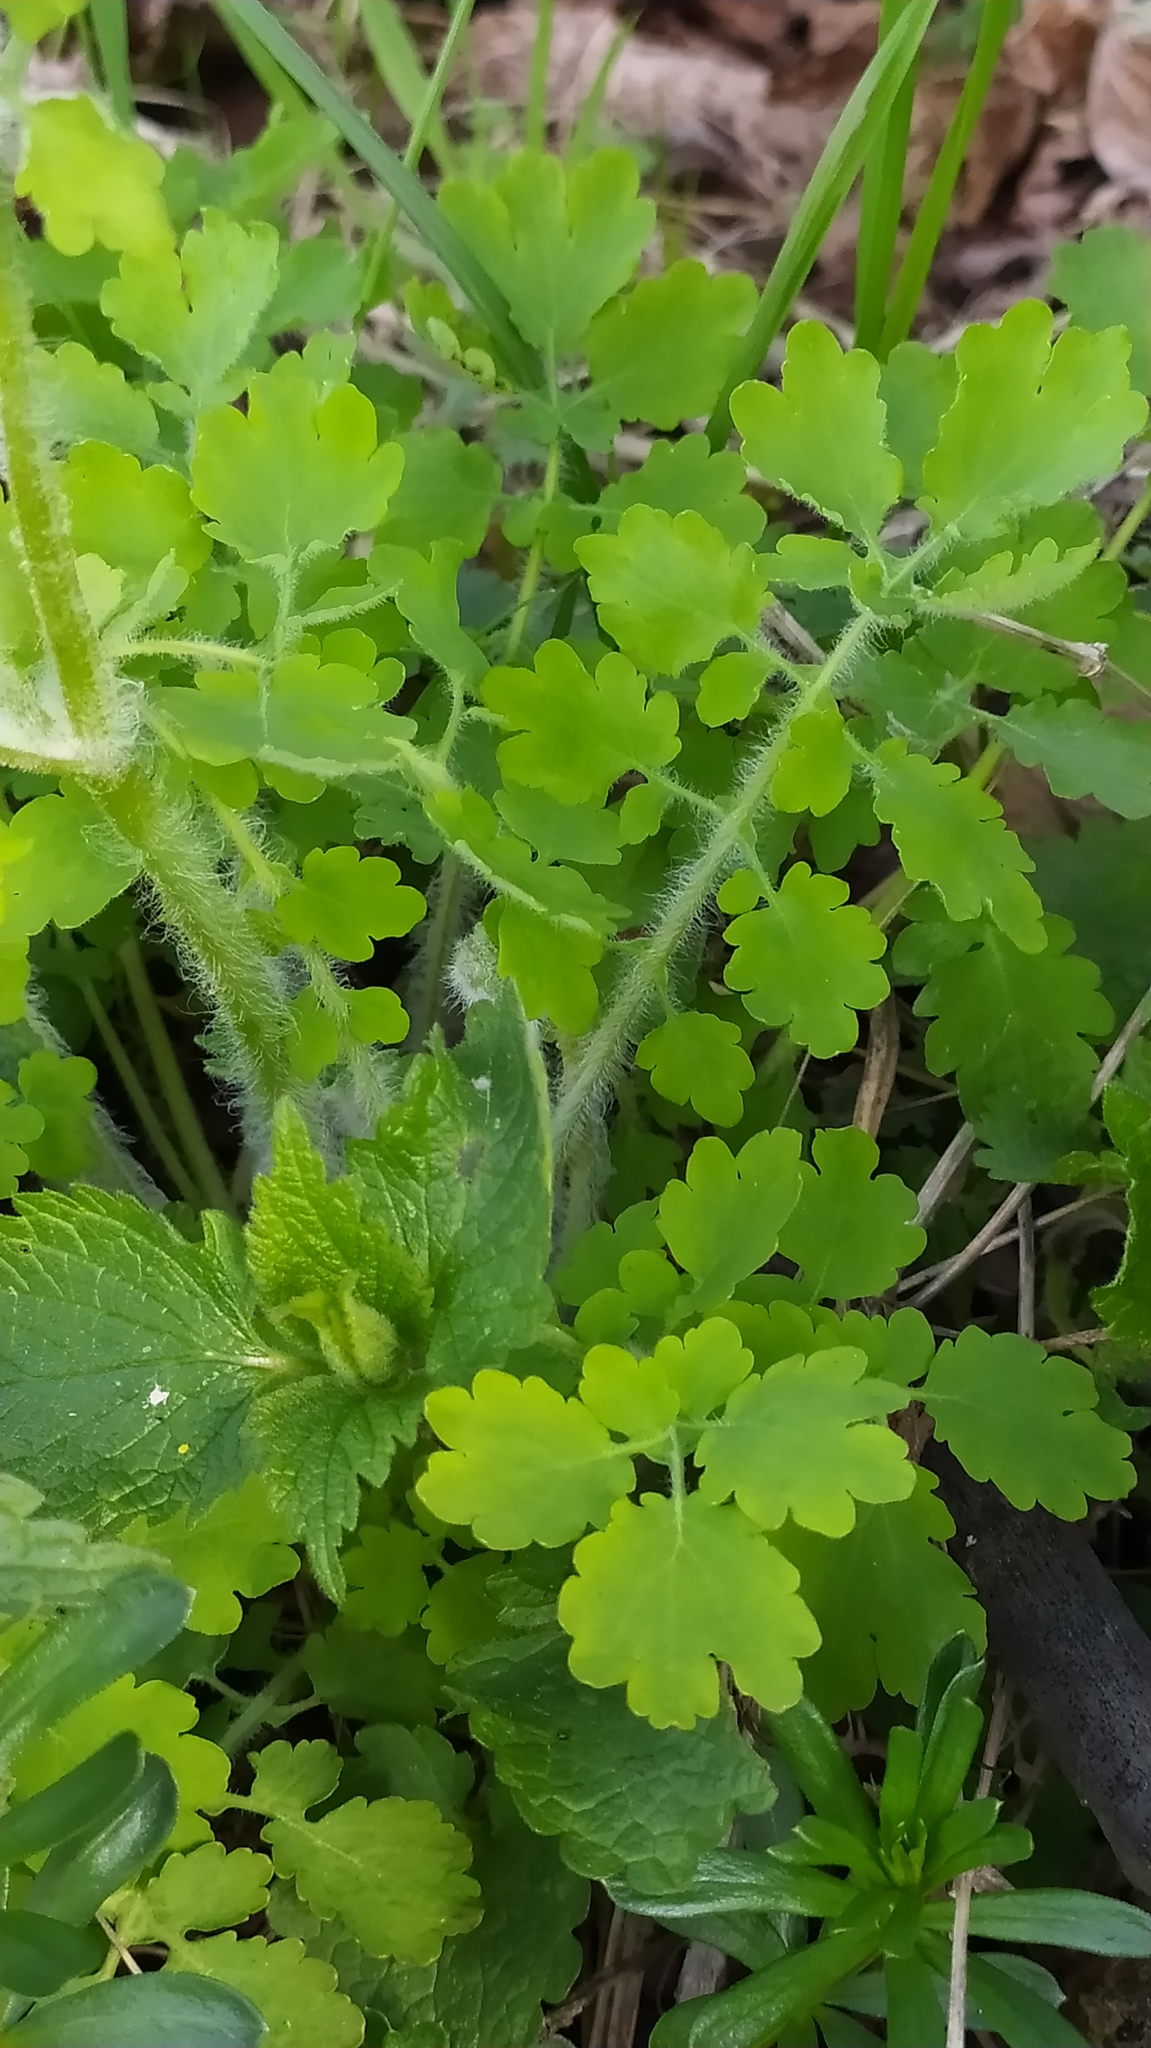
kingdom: Plantae
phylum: Tracheophyta
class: Magnoliopsida
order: Ranunculales
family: Papaveraceae
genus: Chelidonium
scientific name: Chelidonium majus
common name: Greater celandine
